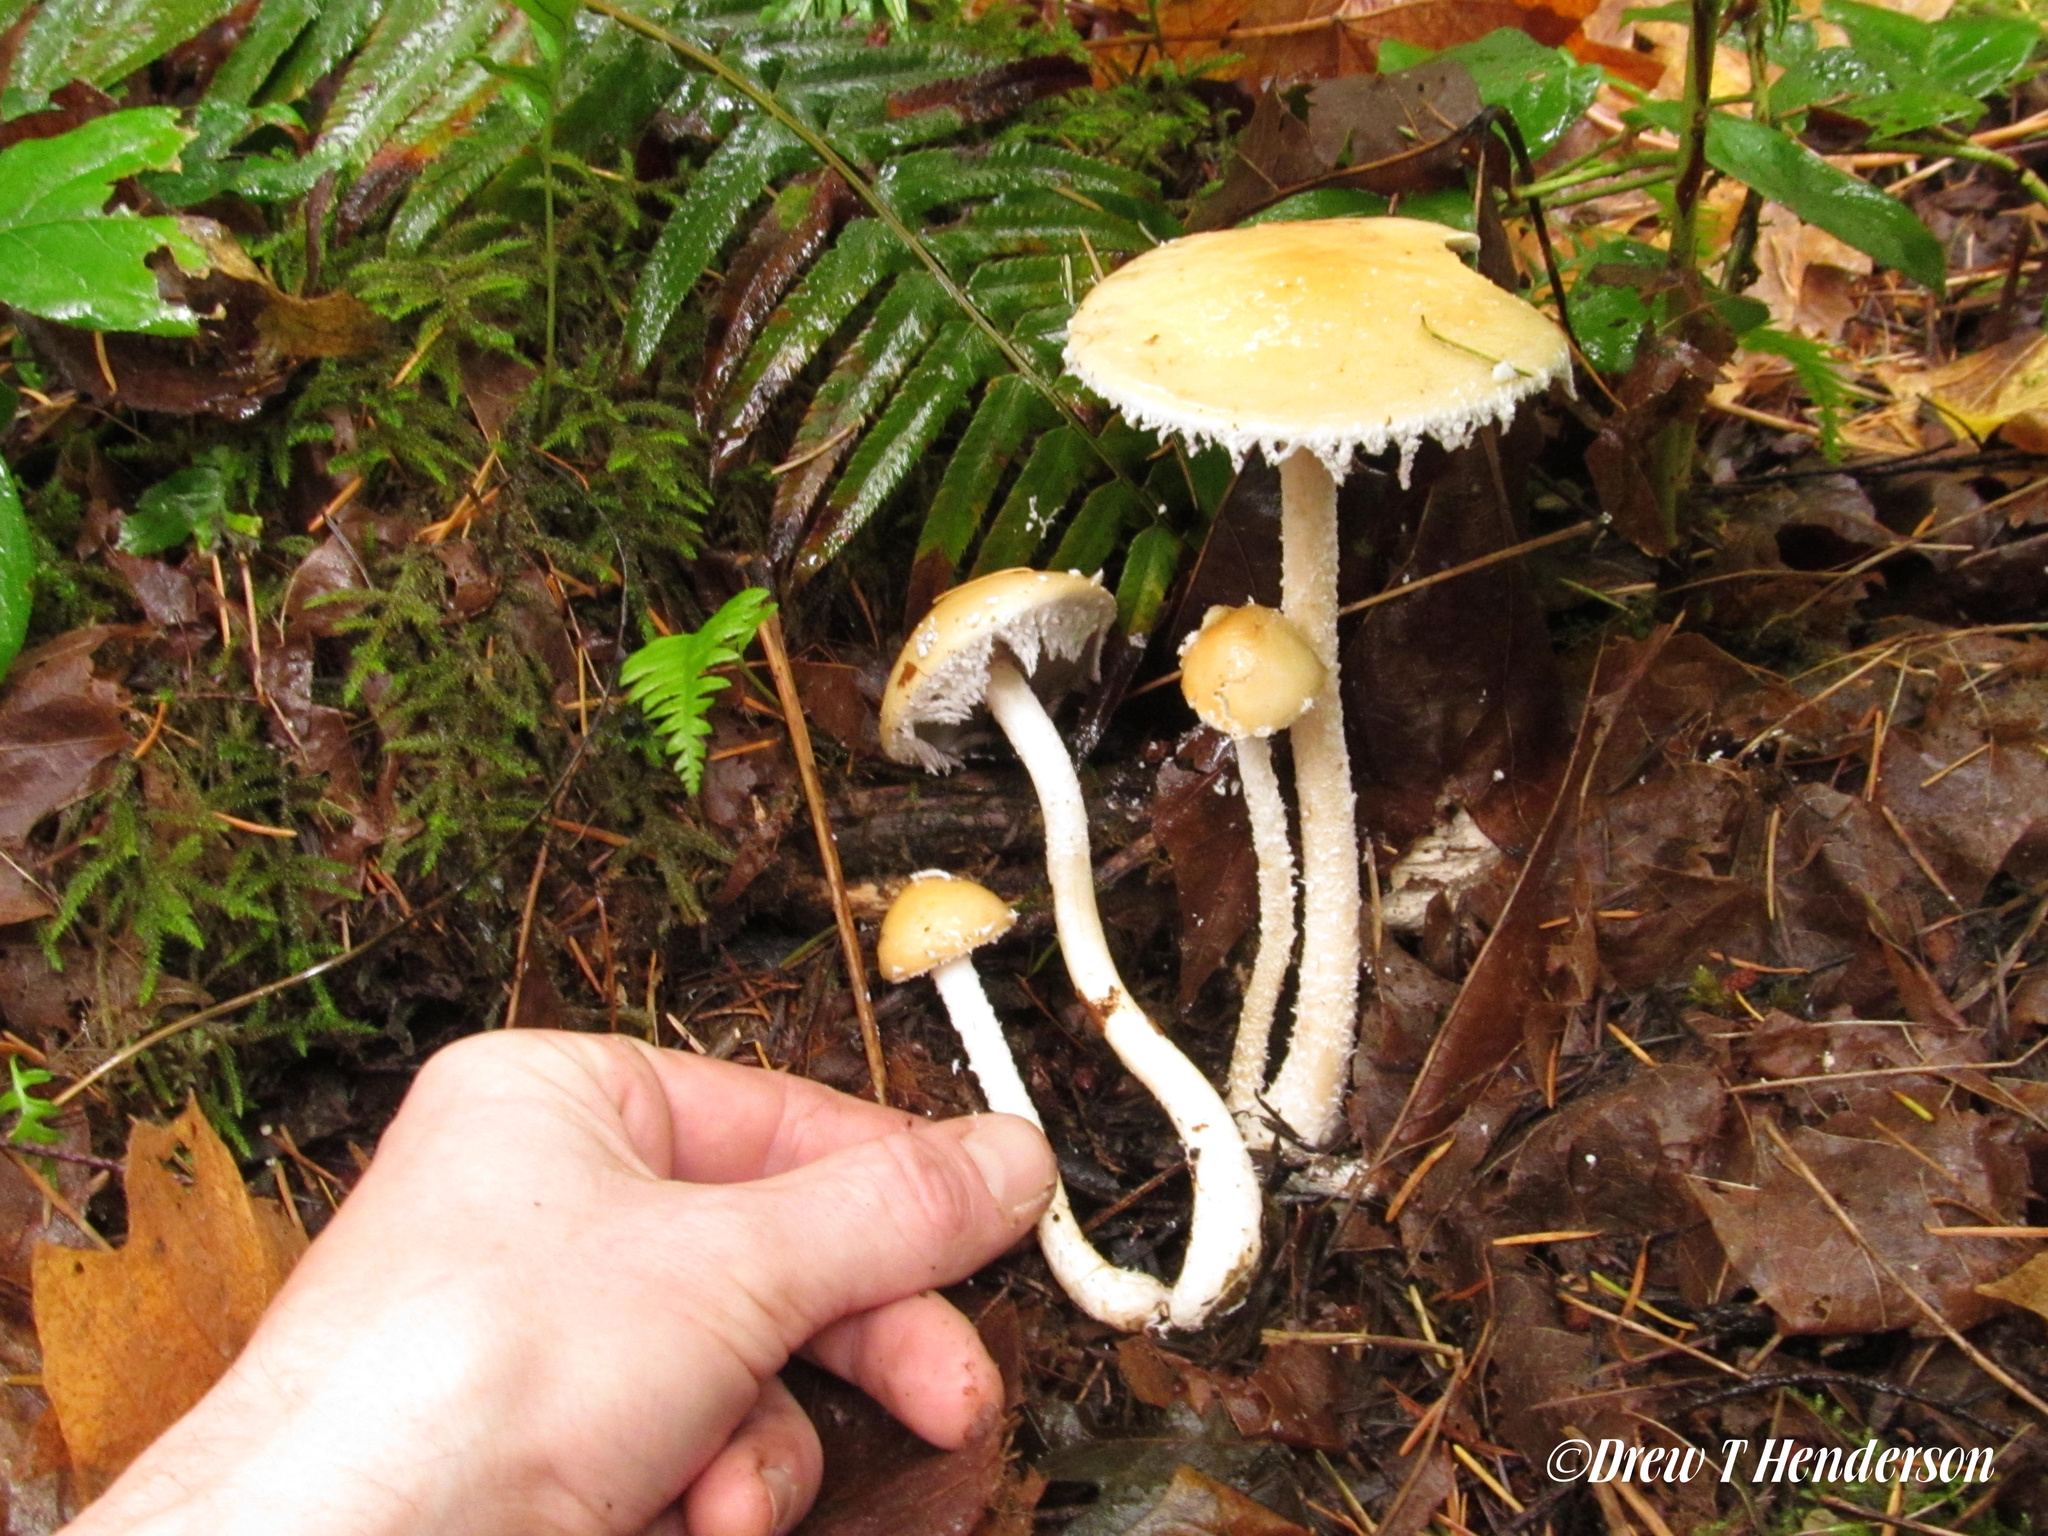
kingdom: Fungi
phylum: Basidiomycota
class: Agaricomycetes
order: Agaricales
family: Strophariaceae
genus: Stropharia
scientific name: Stropharia ambigua
